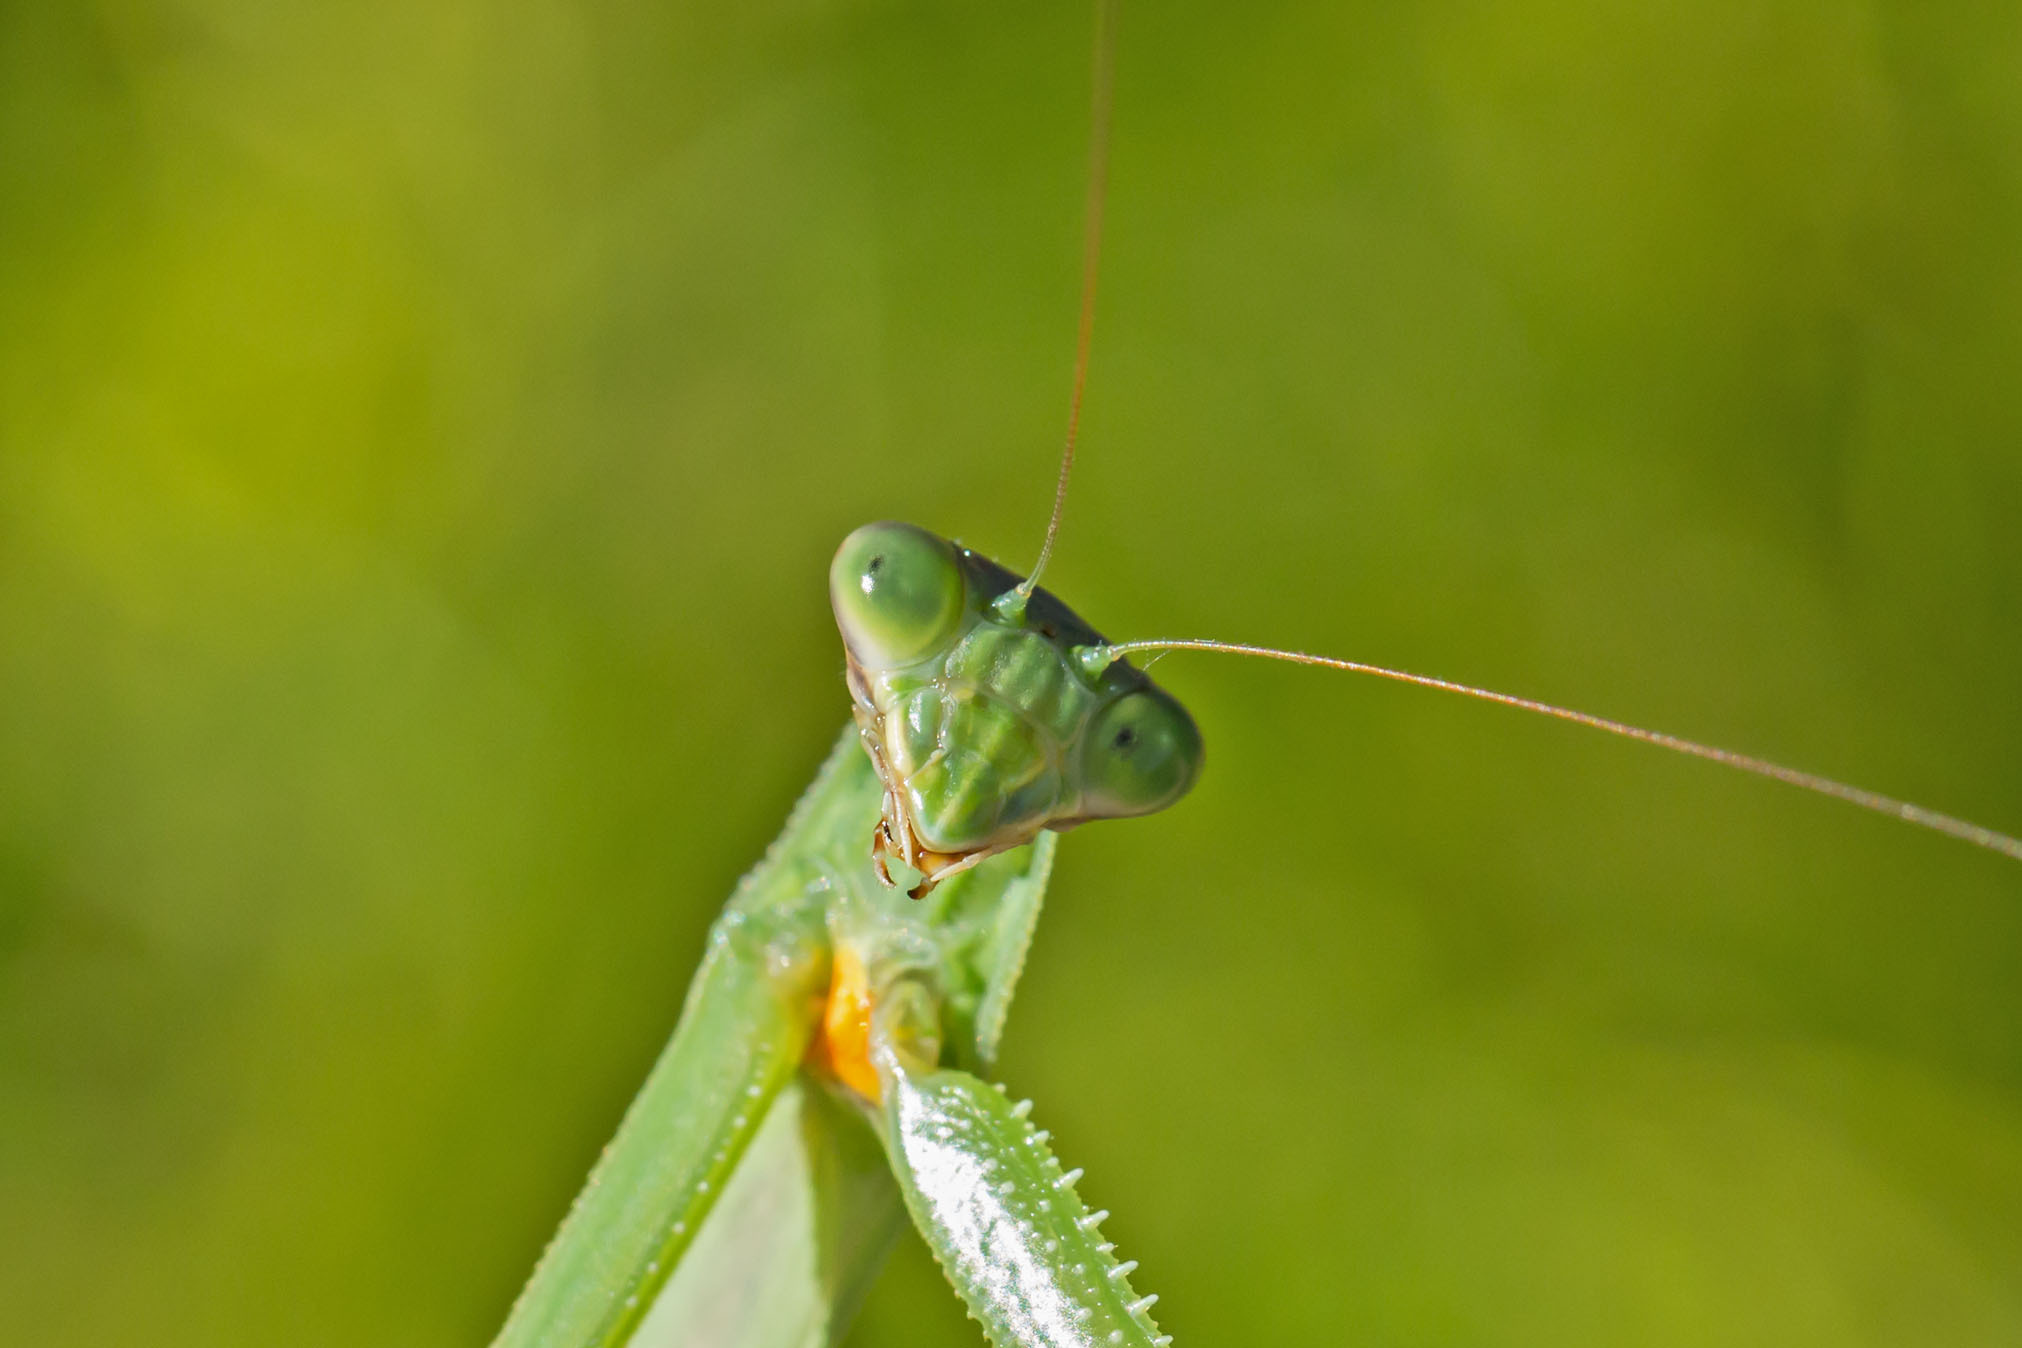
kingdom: Animalia
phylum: Arthropoda
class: Insecta
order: Mantodea
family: Mantidae
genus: Tenodera
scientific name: Tenodera angustipennis
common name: Asian mantis
